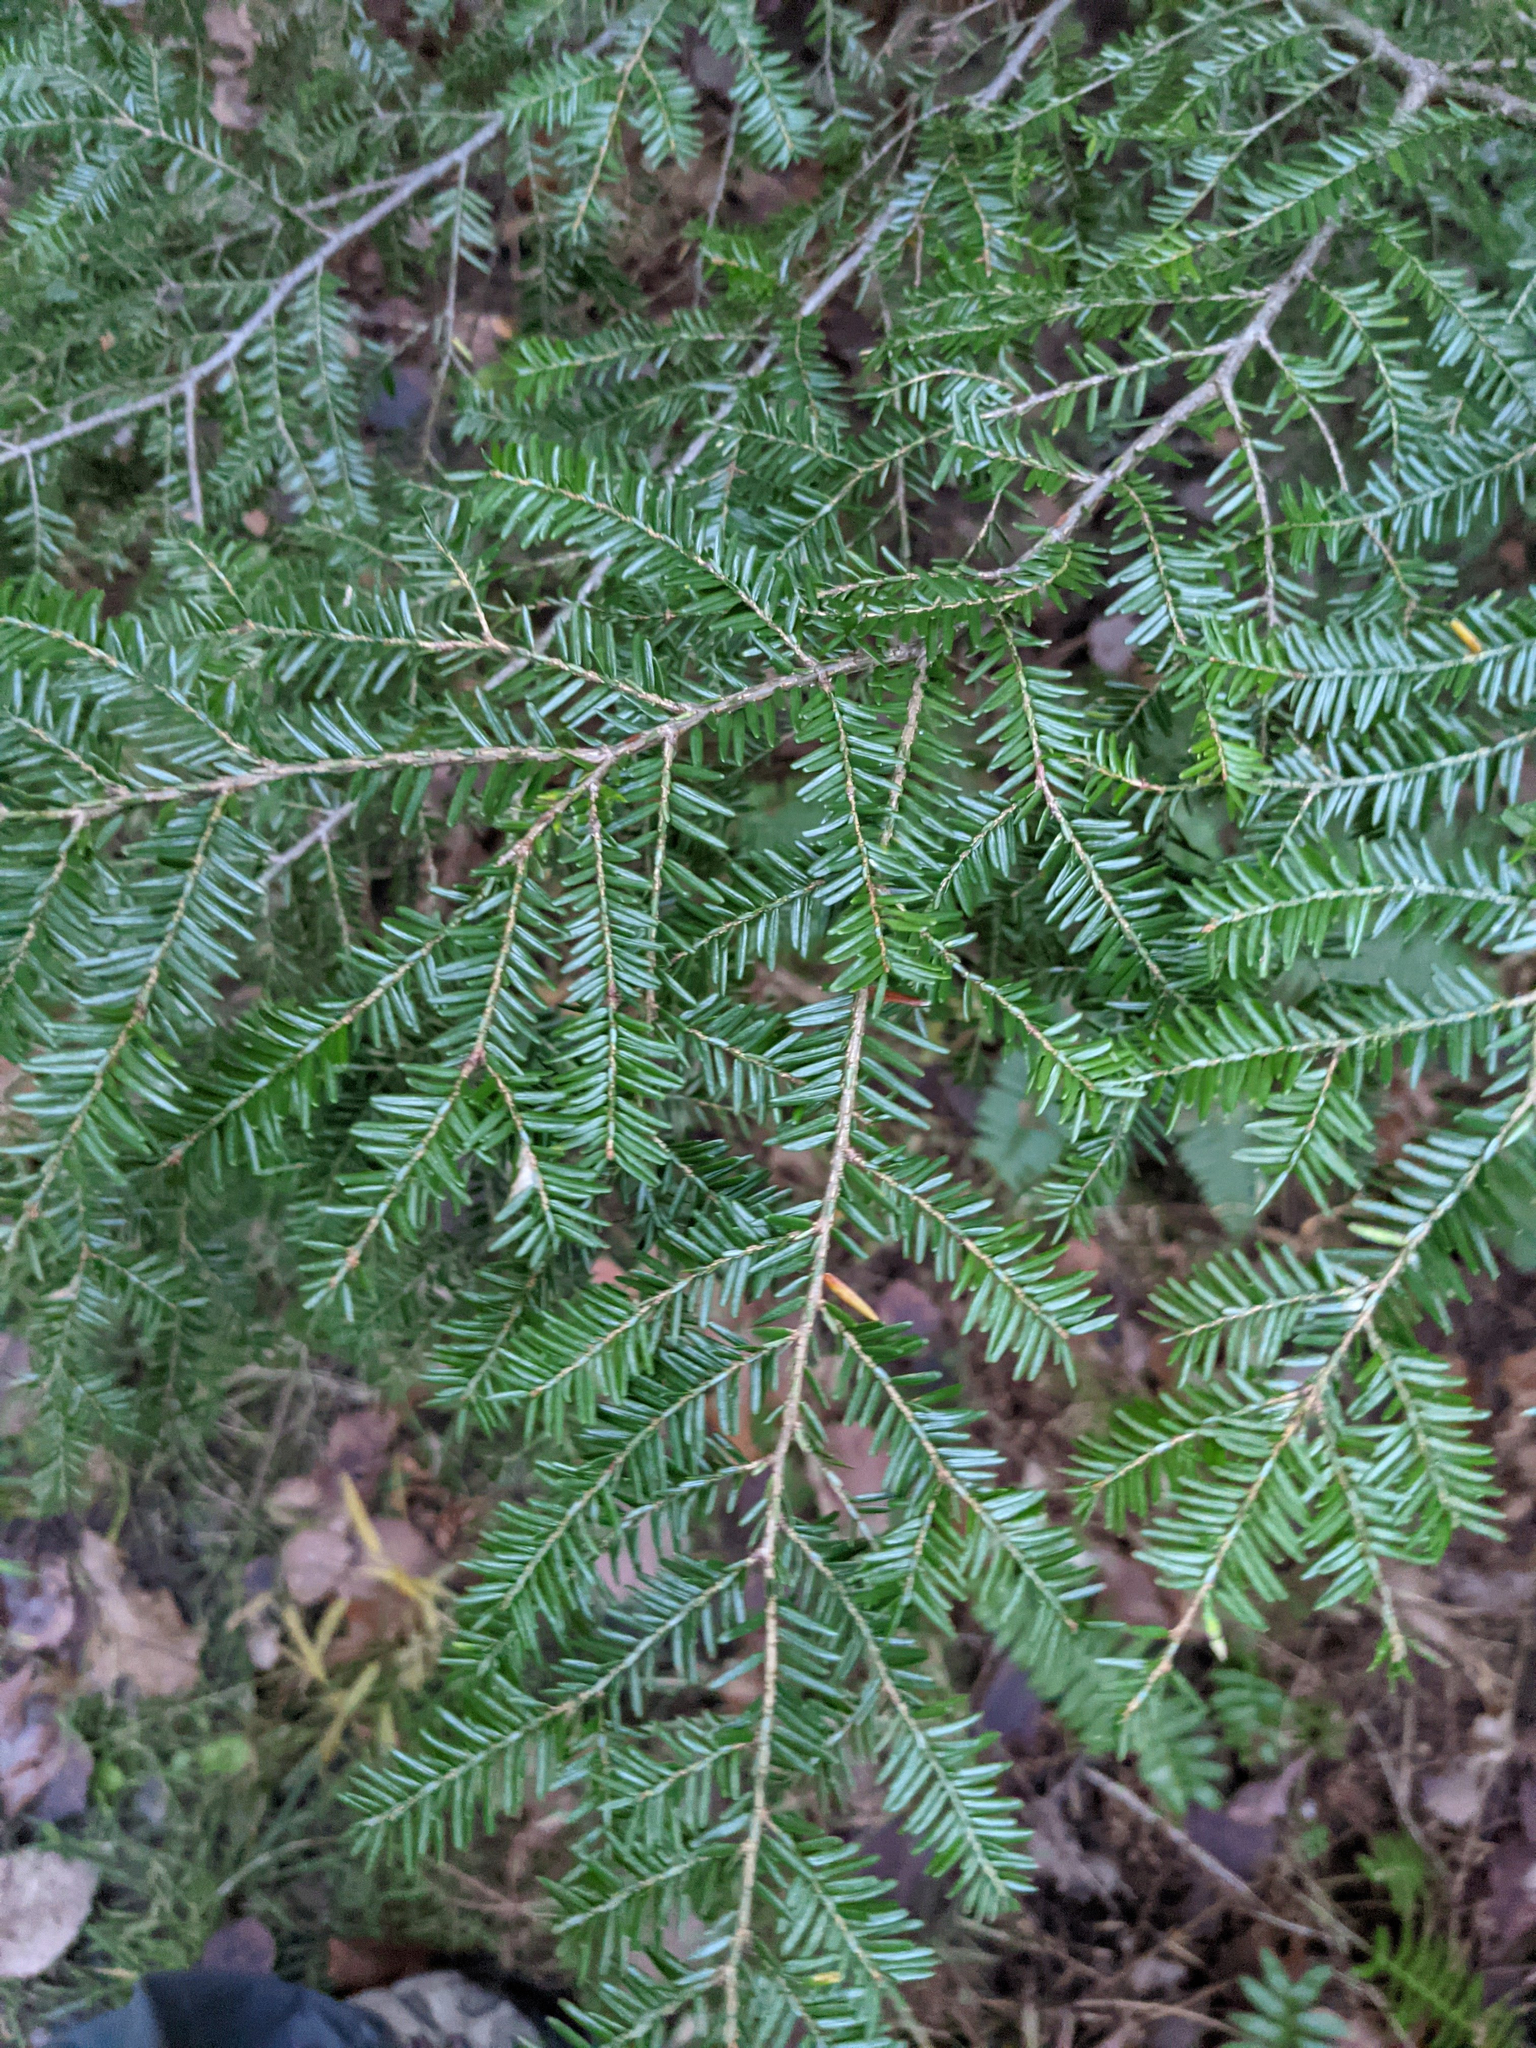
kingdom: Plantae
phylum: Tracheophyta
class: Pinopsida
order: Pinales
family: Pinaceae
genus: Tsuga
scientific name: Tsuga canadensis
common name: Eastern hemlock
